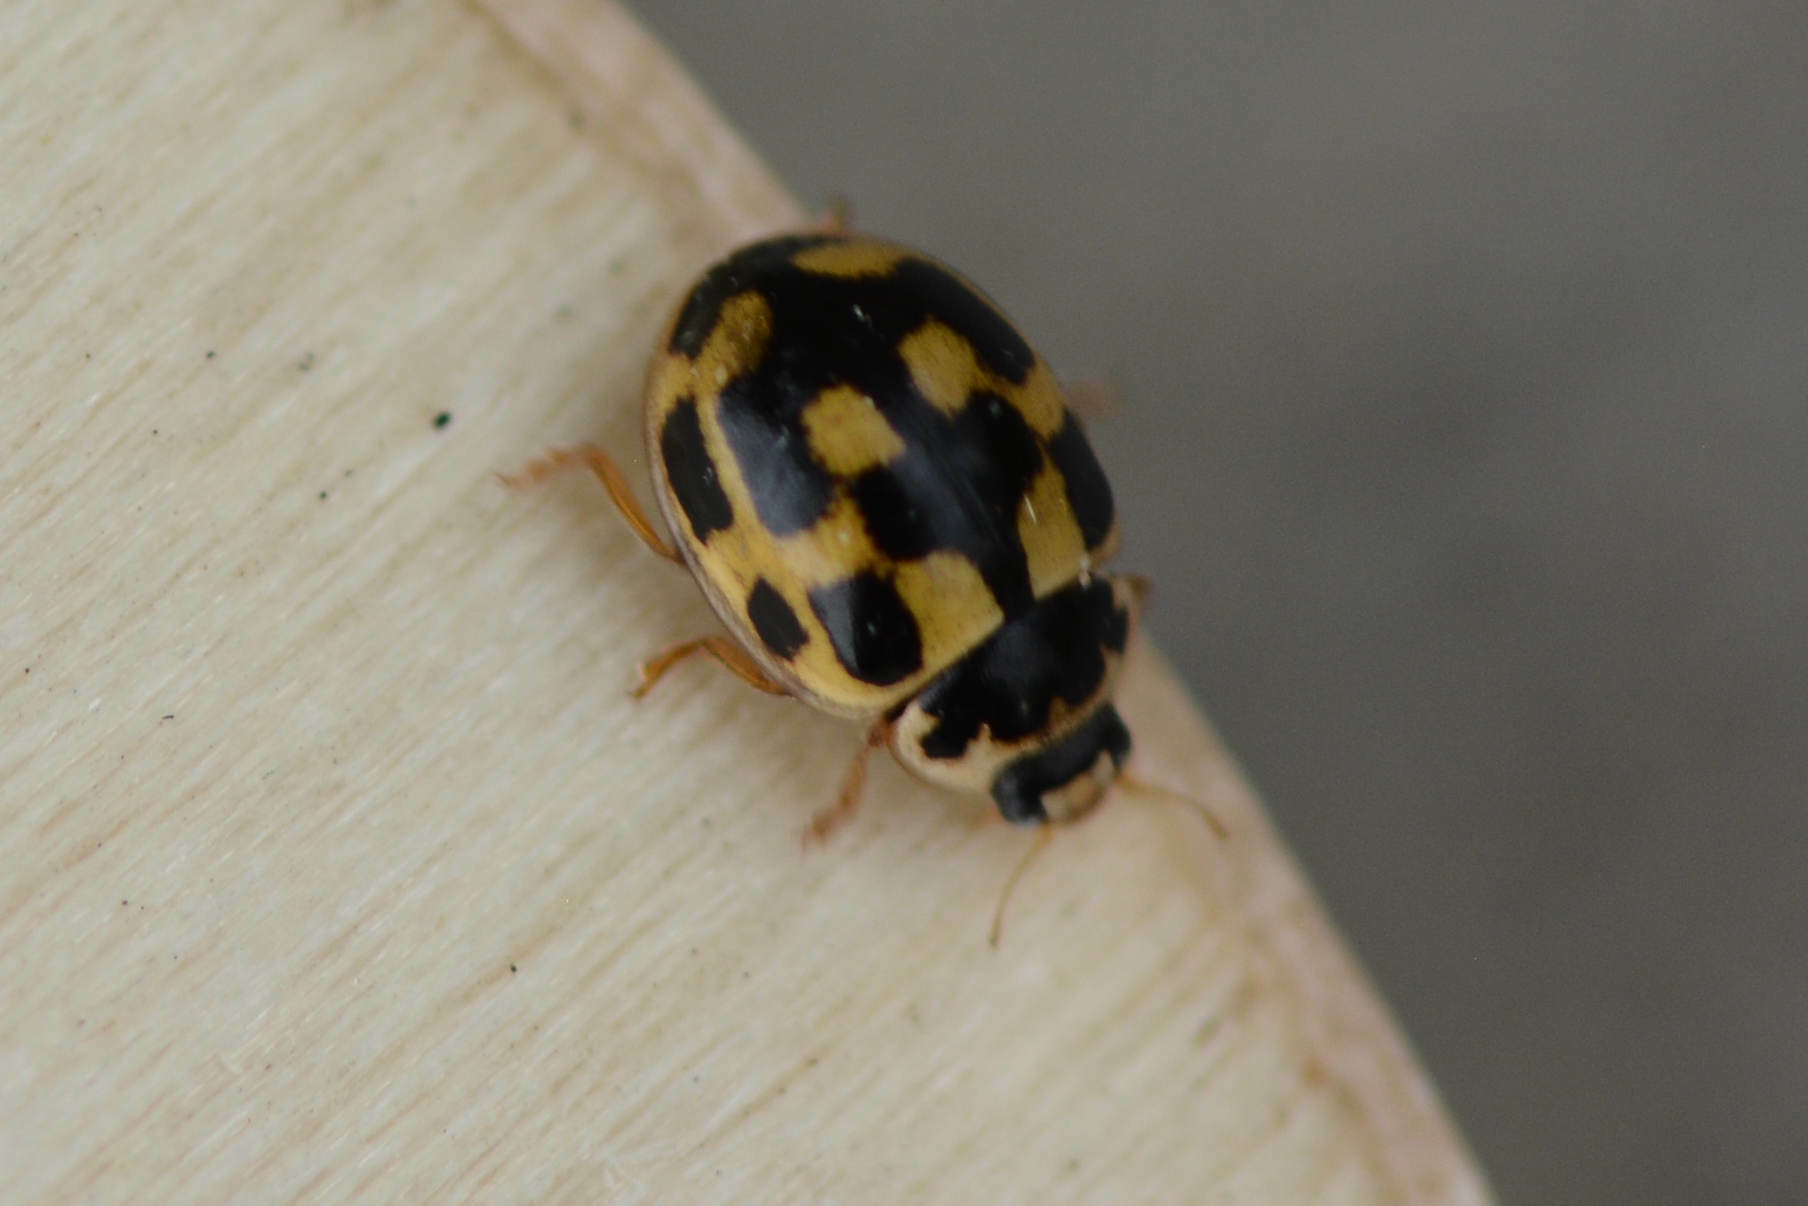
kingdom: Animalia
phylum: Arthropoda
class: Insecta
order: Coleoptera
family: Coccinellidae
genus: Propylaea
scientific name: Propylaea quatuordecimpunctata
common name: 14-spotted ladybird beetle
